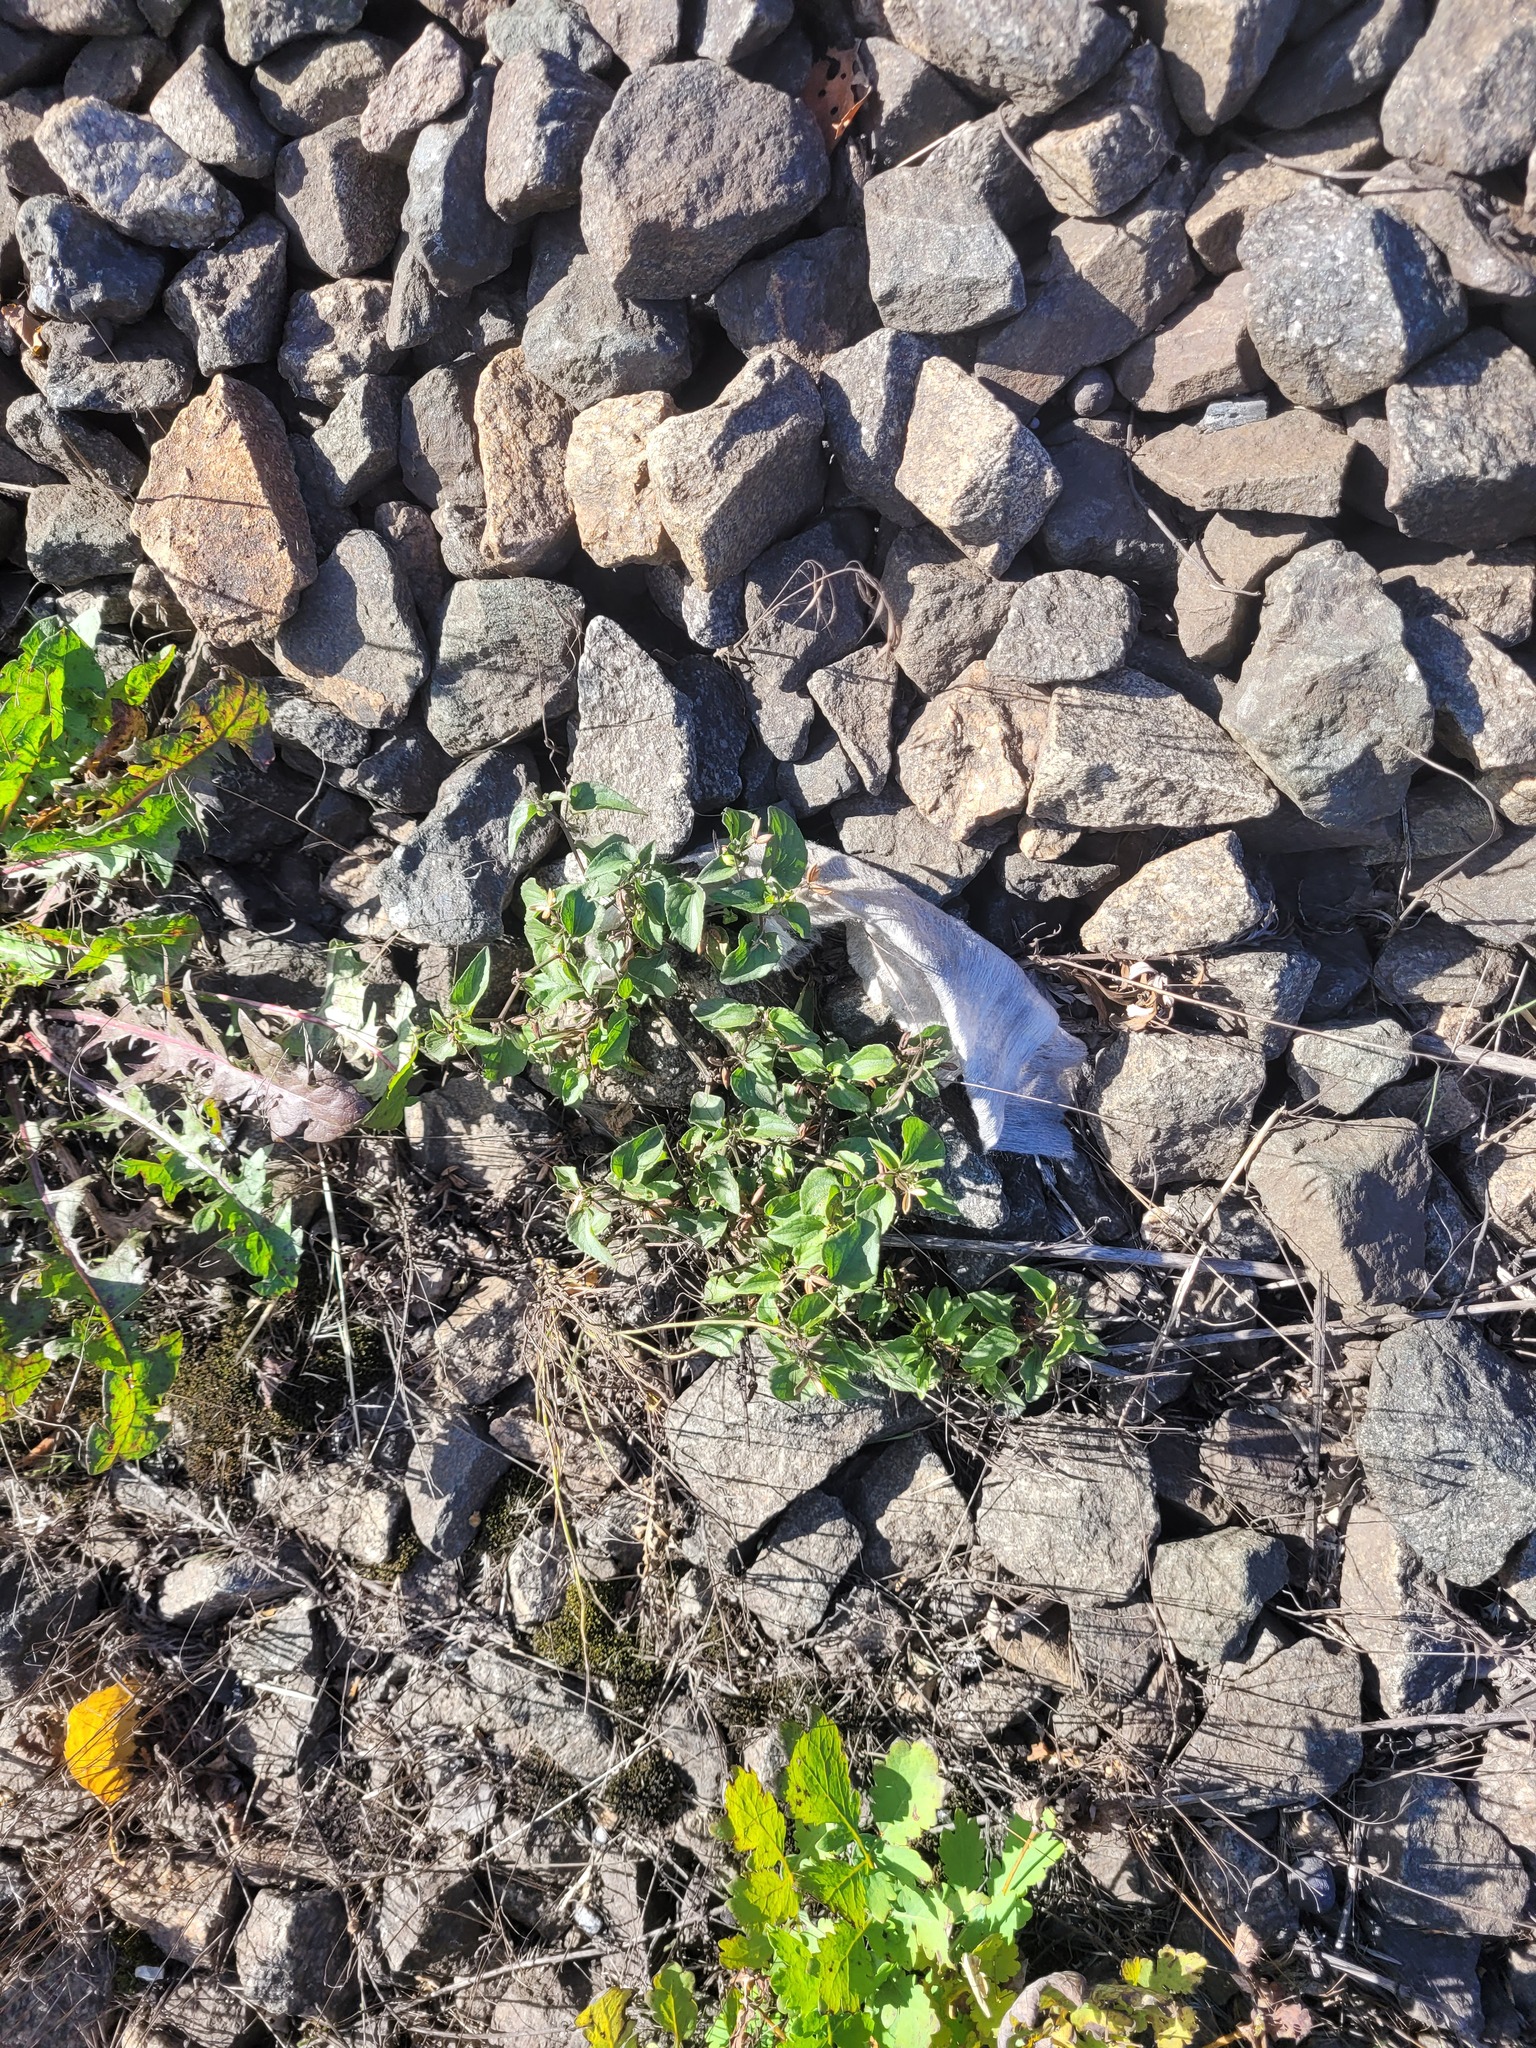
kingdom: Plantae
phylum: Tracheophyta
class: Magnoliopsida
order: Malpighiales
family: Violaceae
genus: Viola
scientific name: Viola canina
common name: Heath dog-violet
